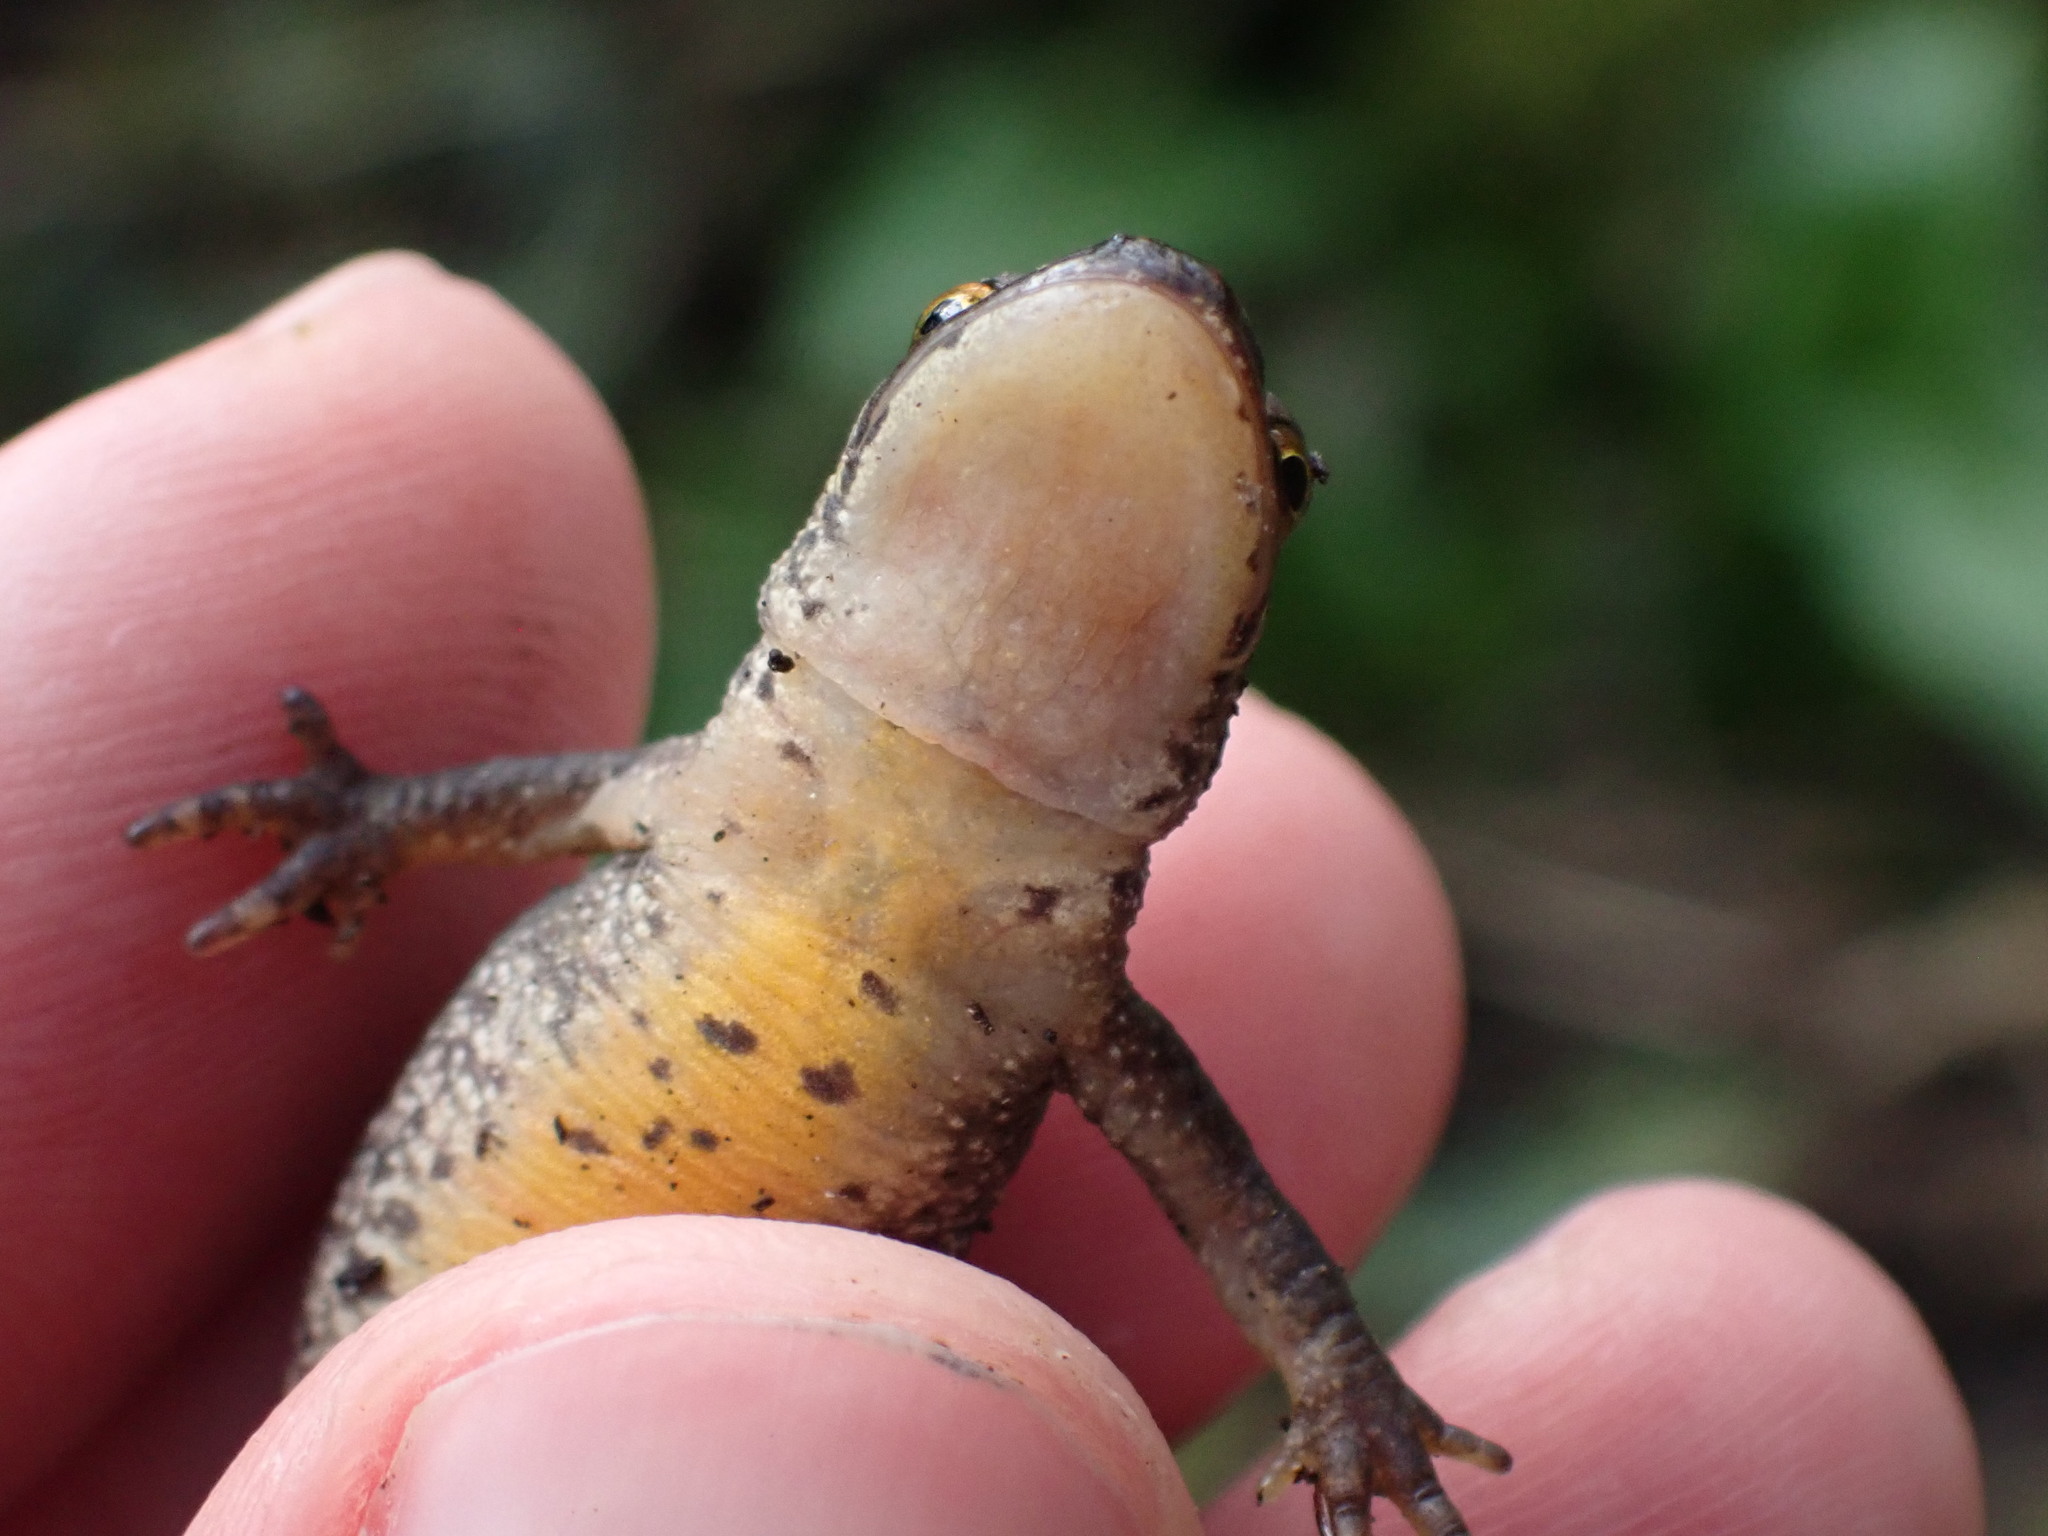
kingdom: Animalia
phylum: Chordata
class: Amphibia
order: Caudata
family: Salamandridae
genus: Lissotriton
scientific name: Lissotriton helveticus
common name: Palmate newt
